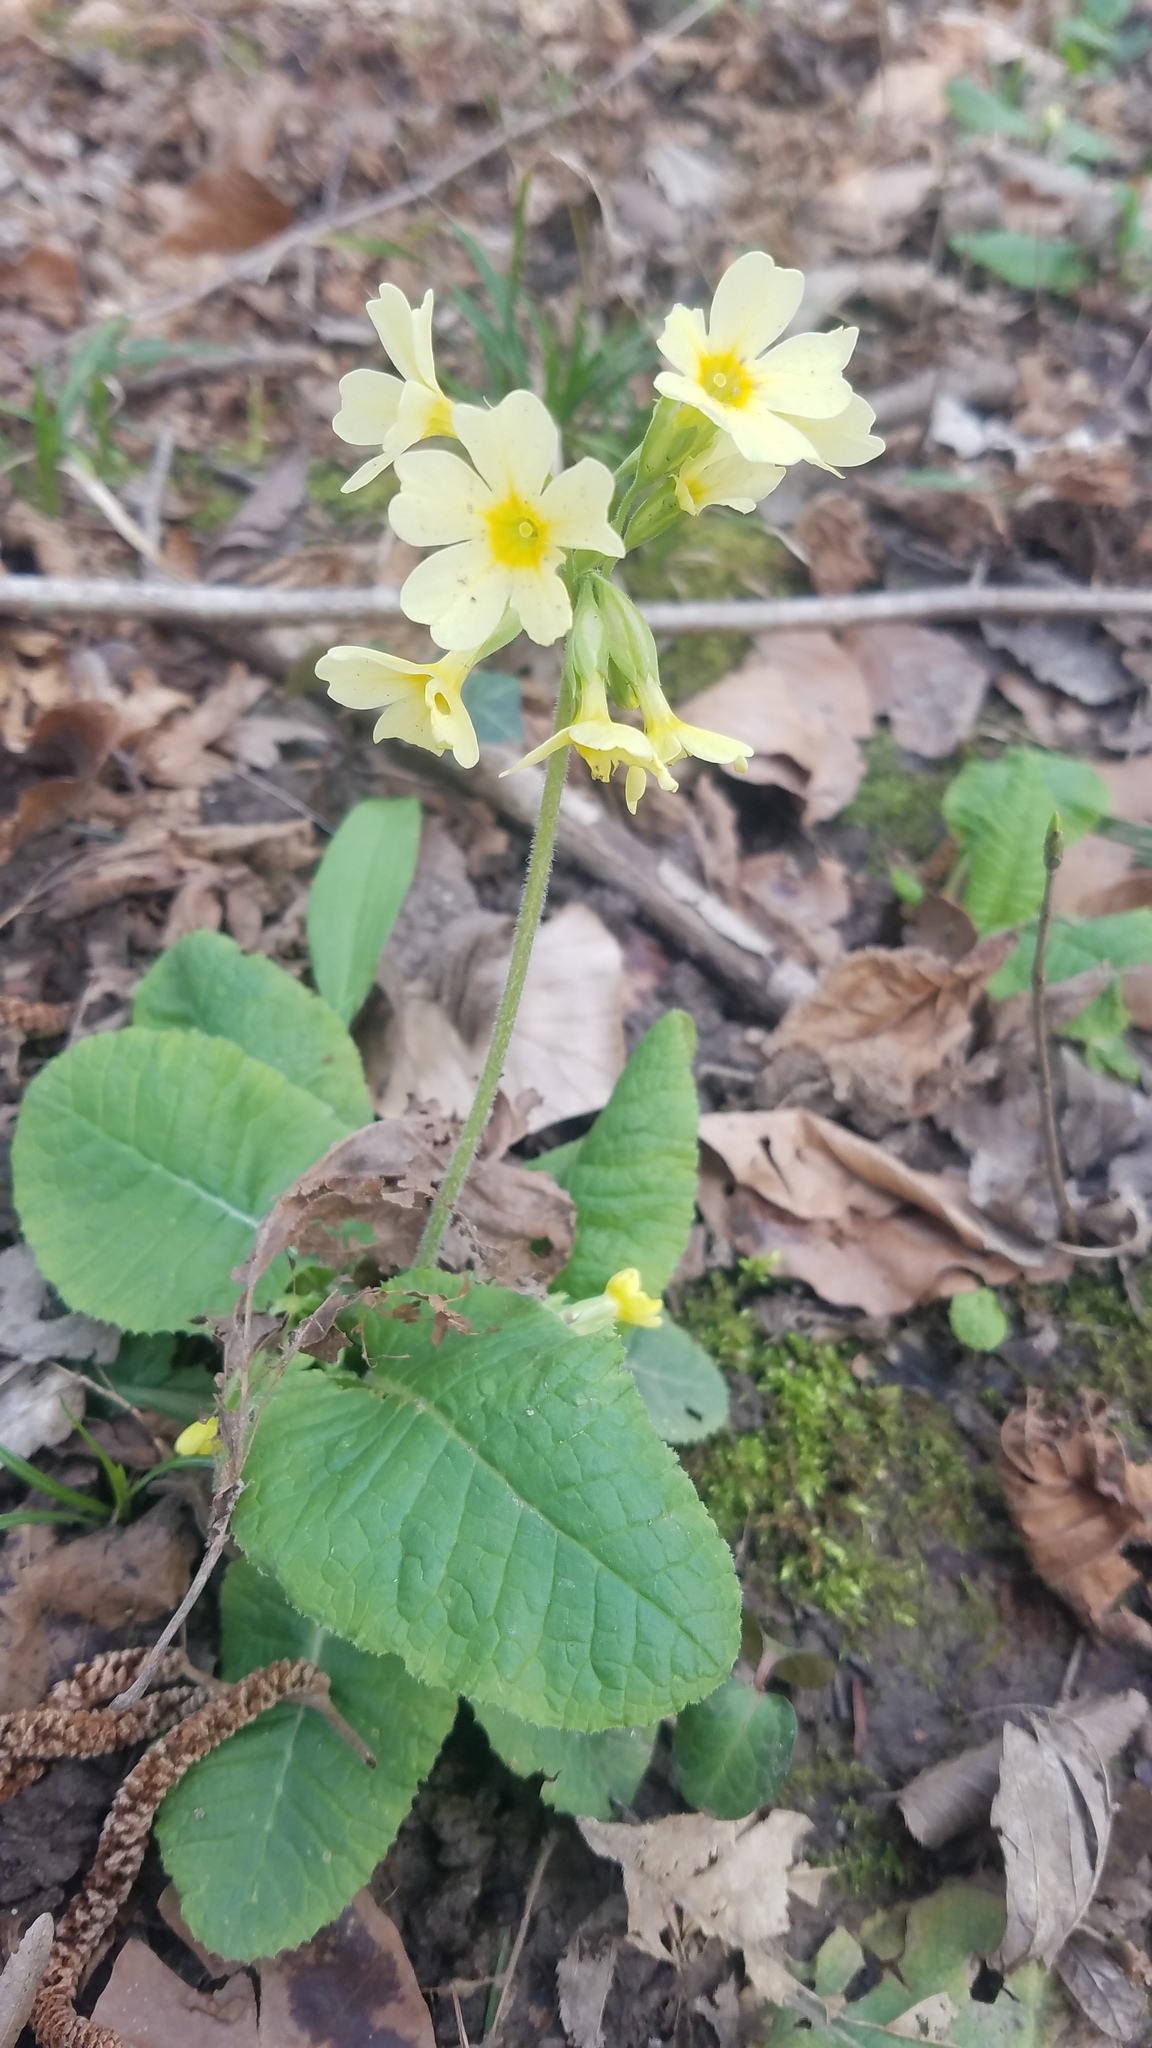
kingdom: Plantae
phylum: Tracheophyta
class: Magnoliopsida
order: Ericales
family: Primulaceae
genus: Primula
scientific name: Primula elatior
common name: Oxlip
